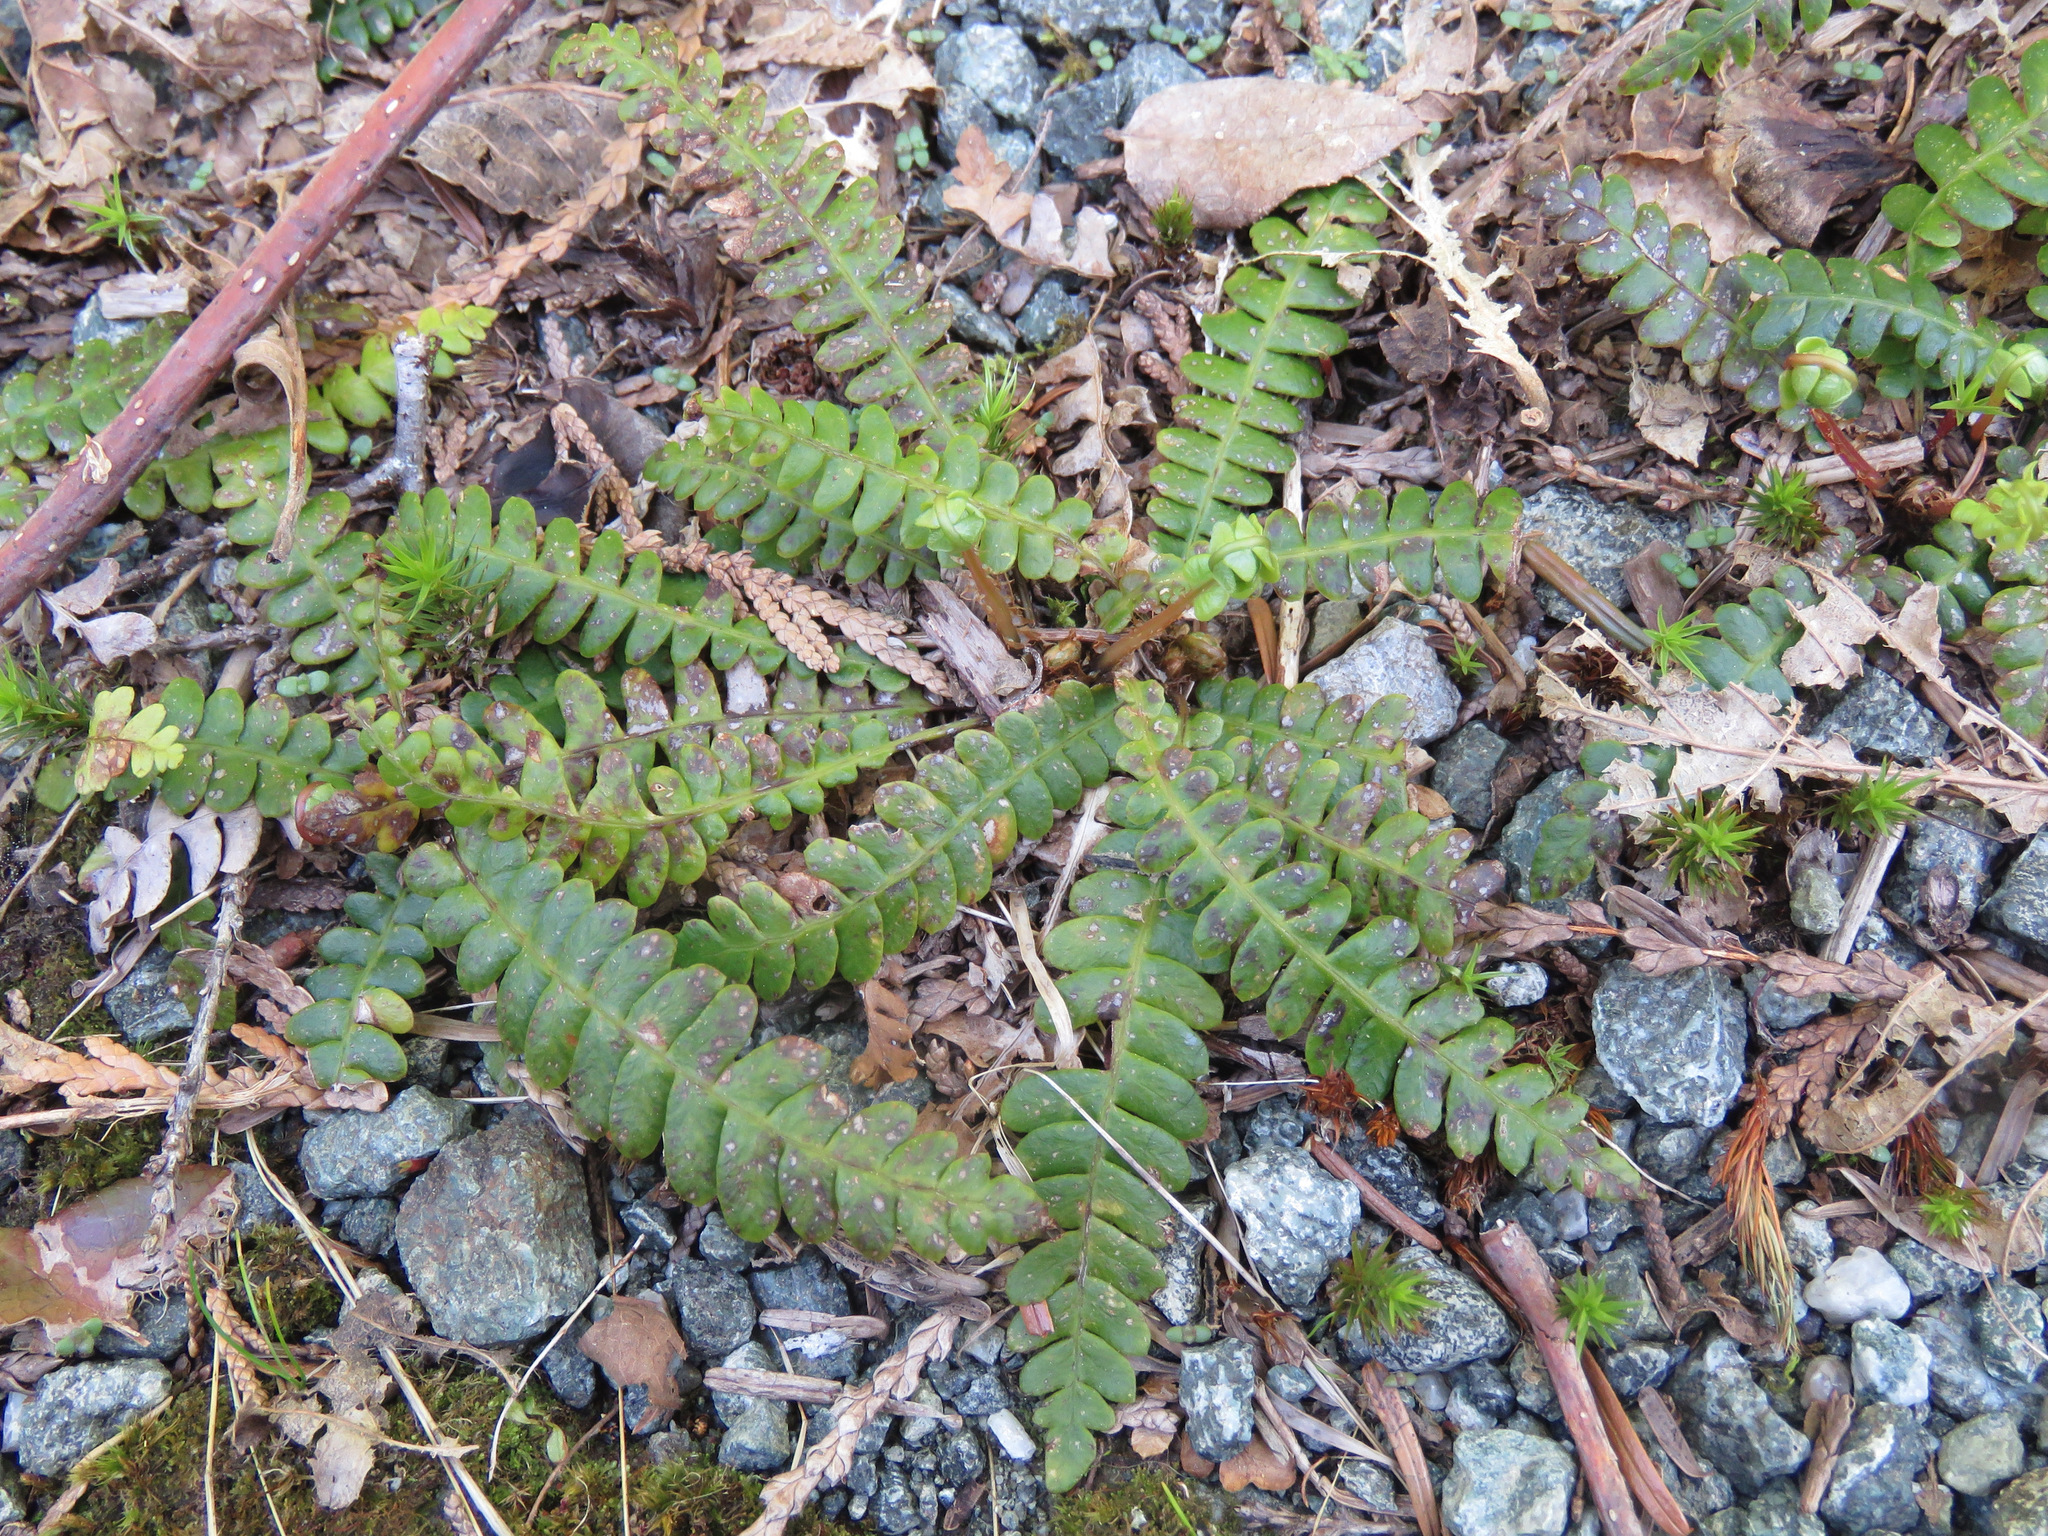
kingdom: Plantae
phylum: Tracheophyta
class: Polypodiopsida
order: Polypodiales
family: Blechnaceae
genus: Struthiopteris
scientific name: Struthiopteris spicant
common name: Deer fern
